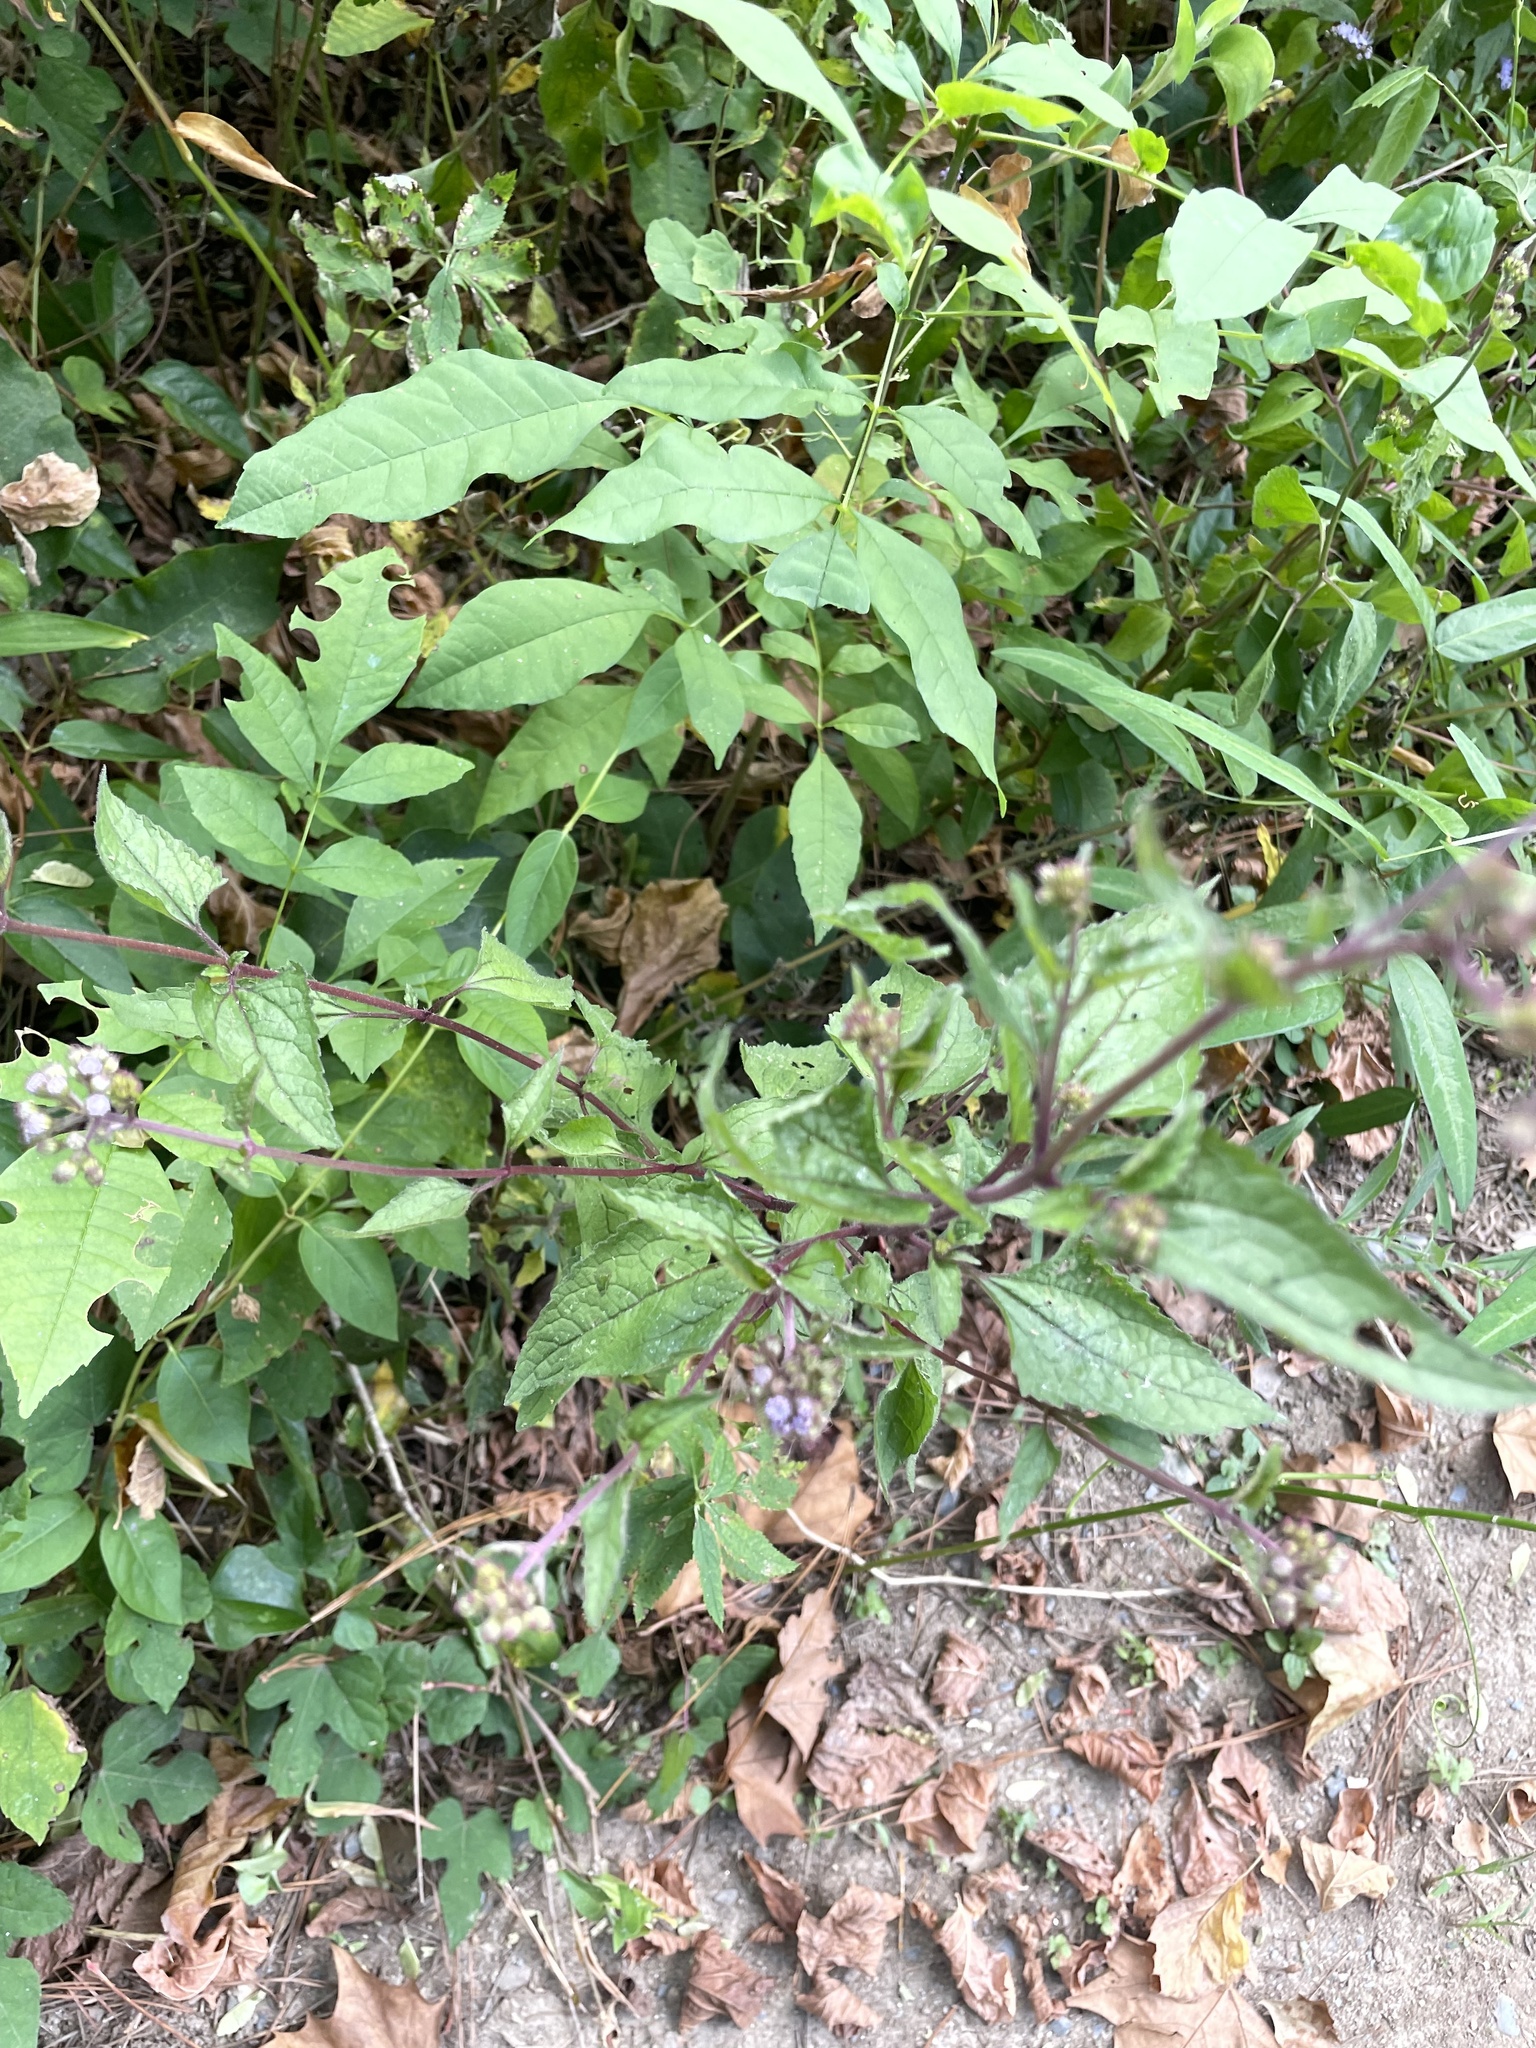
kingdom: Plantae
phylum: Tracheophyta
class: Magnoliopsida
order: Asterales
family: Asteraceae
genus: Conoclinium
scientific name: Conoclinium coelestinum
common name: Blue mistflower
